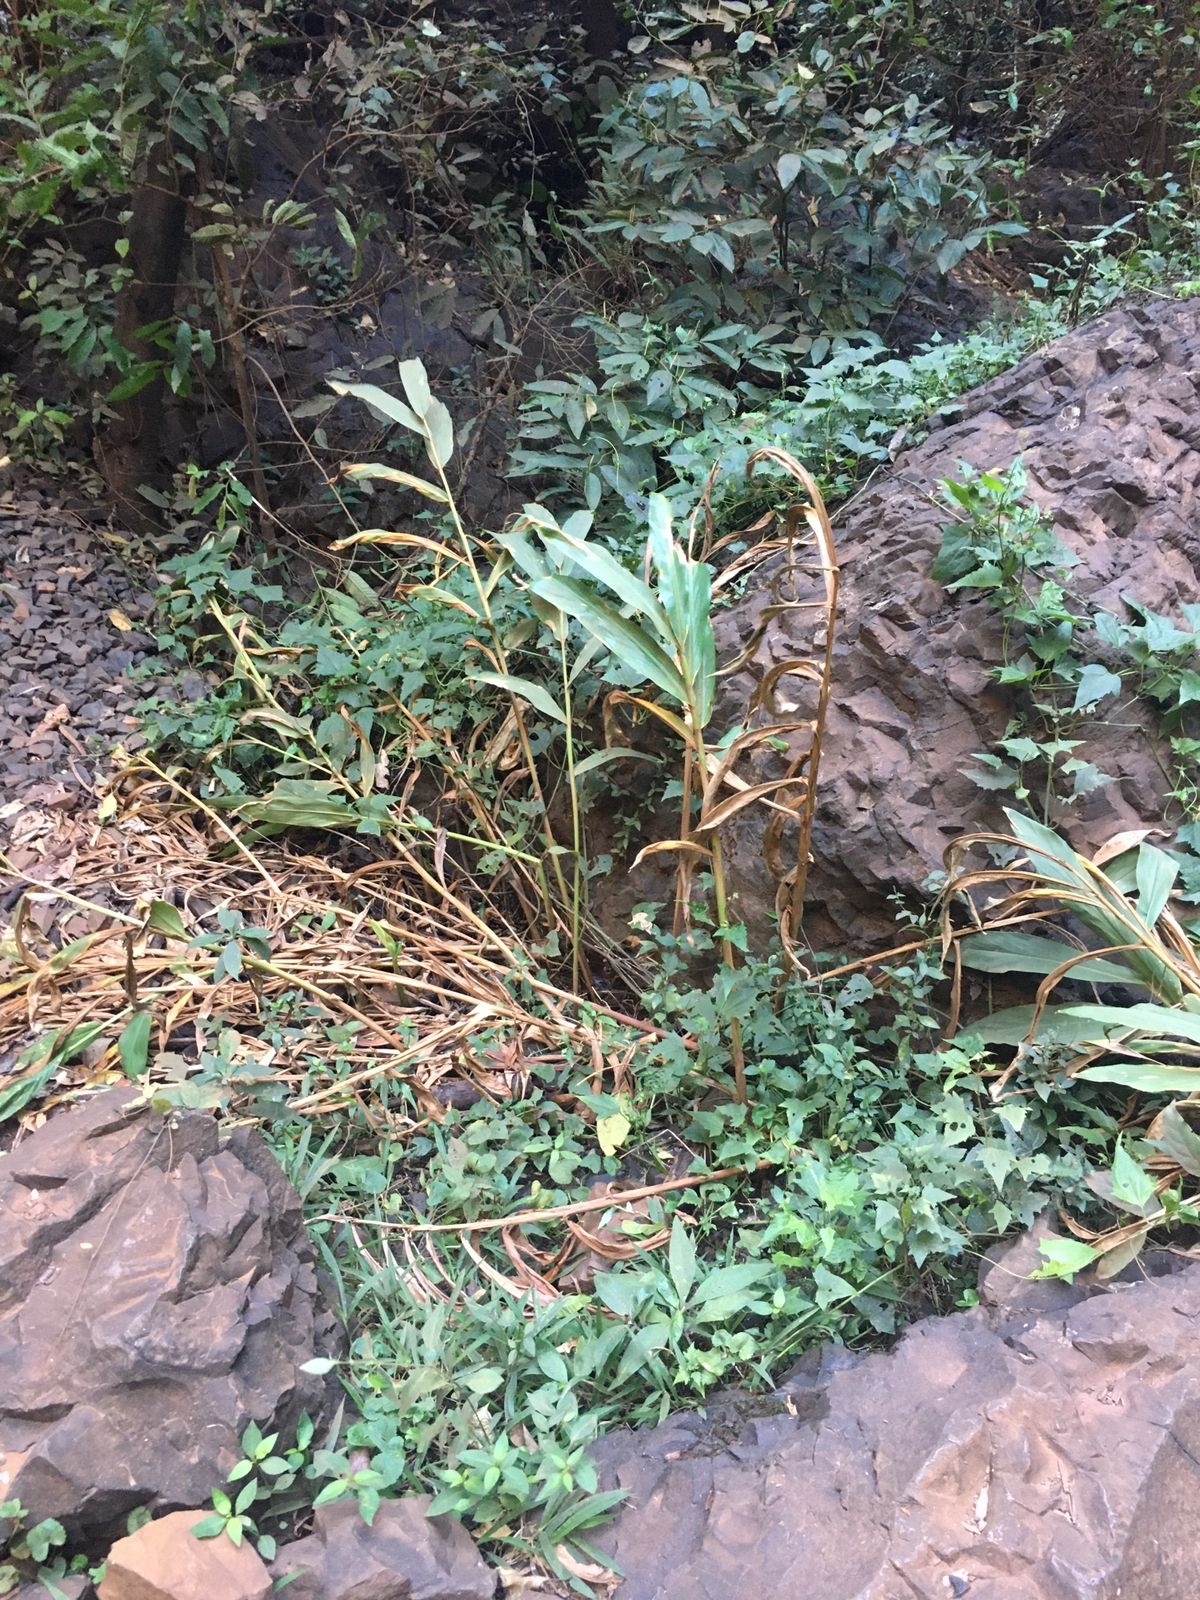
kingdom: Plantae
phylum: Tracheophyta
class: Liliopsida
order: Zingiberales
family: Zingiberaceae
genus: Hedychium
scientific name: Hedychium coronarium
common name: White garland-lily
